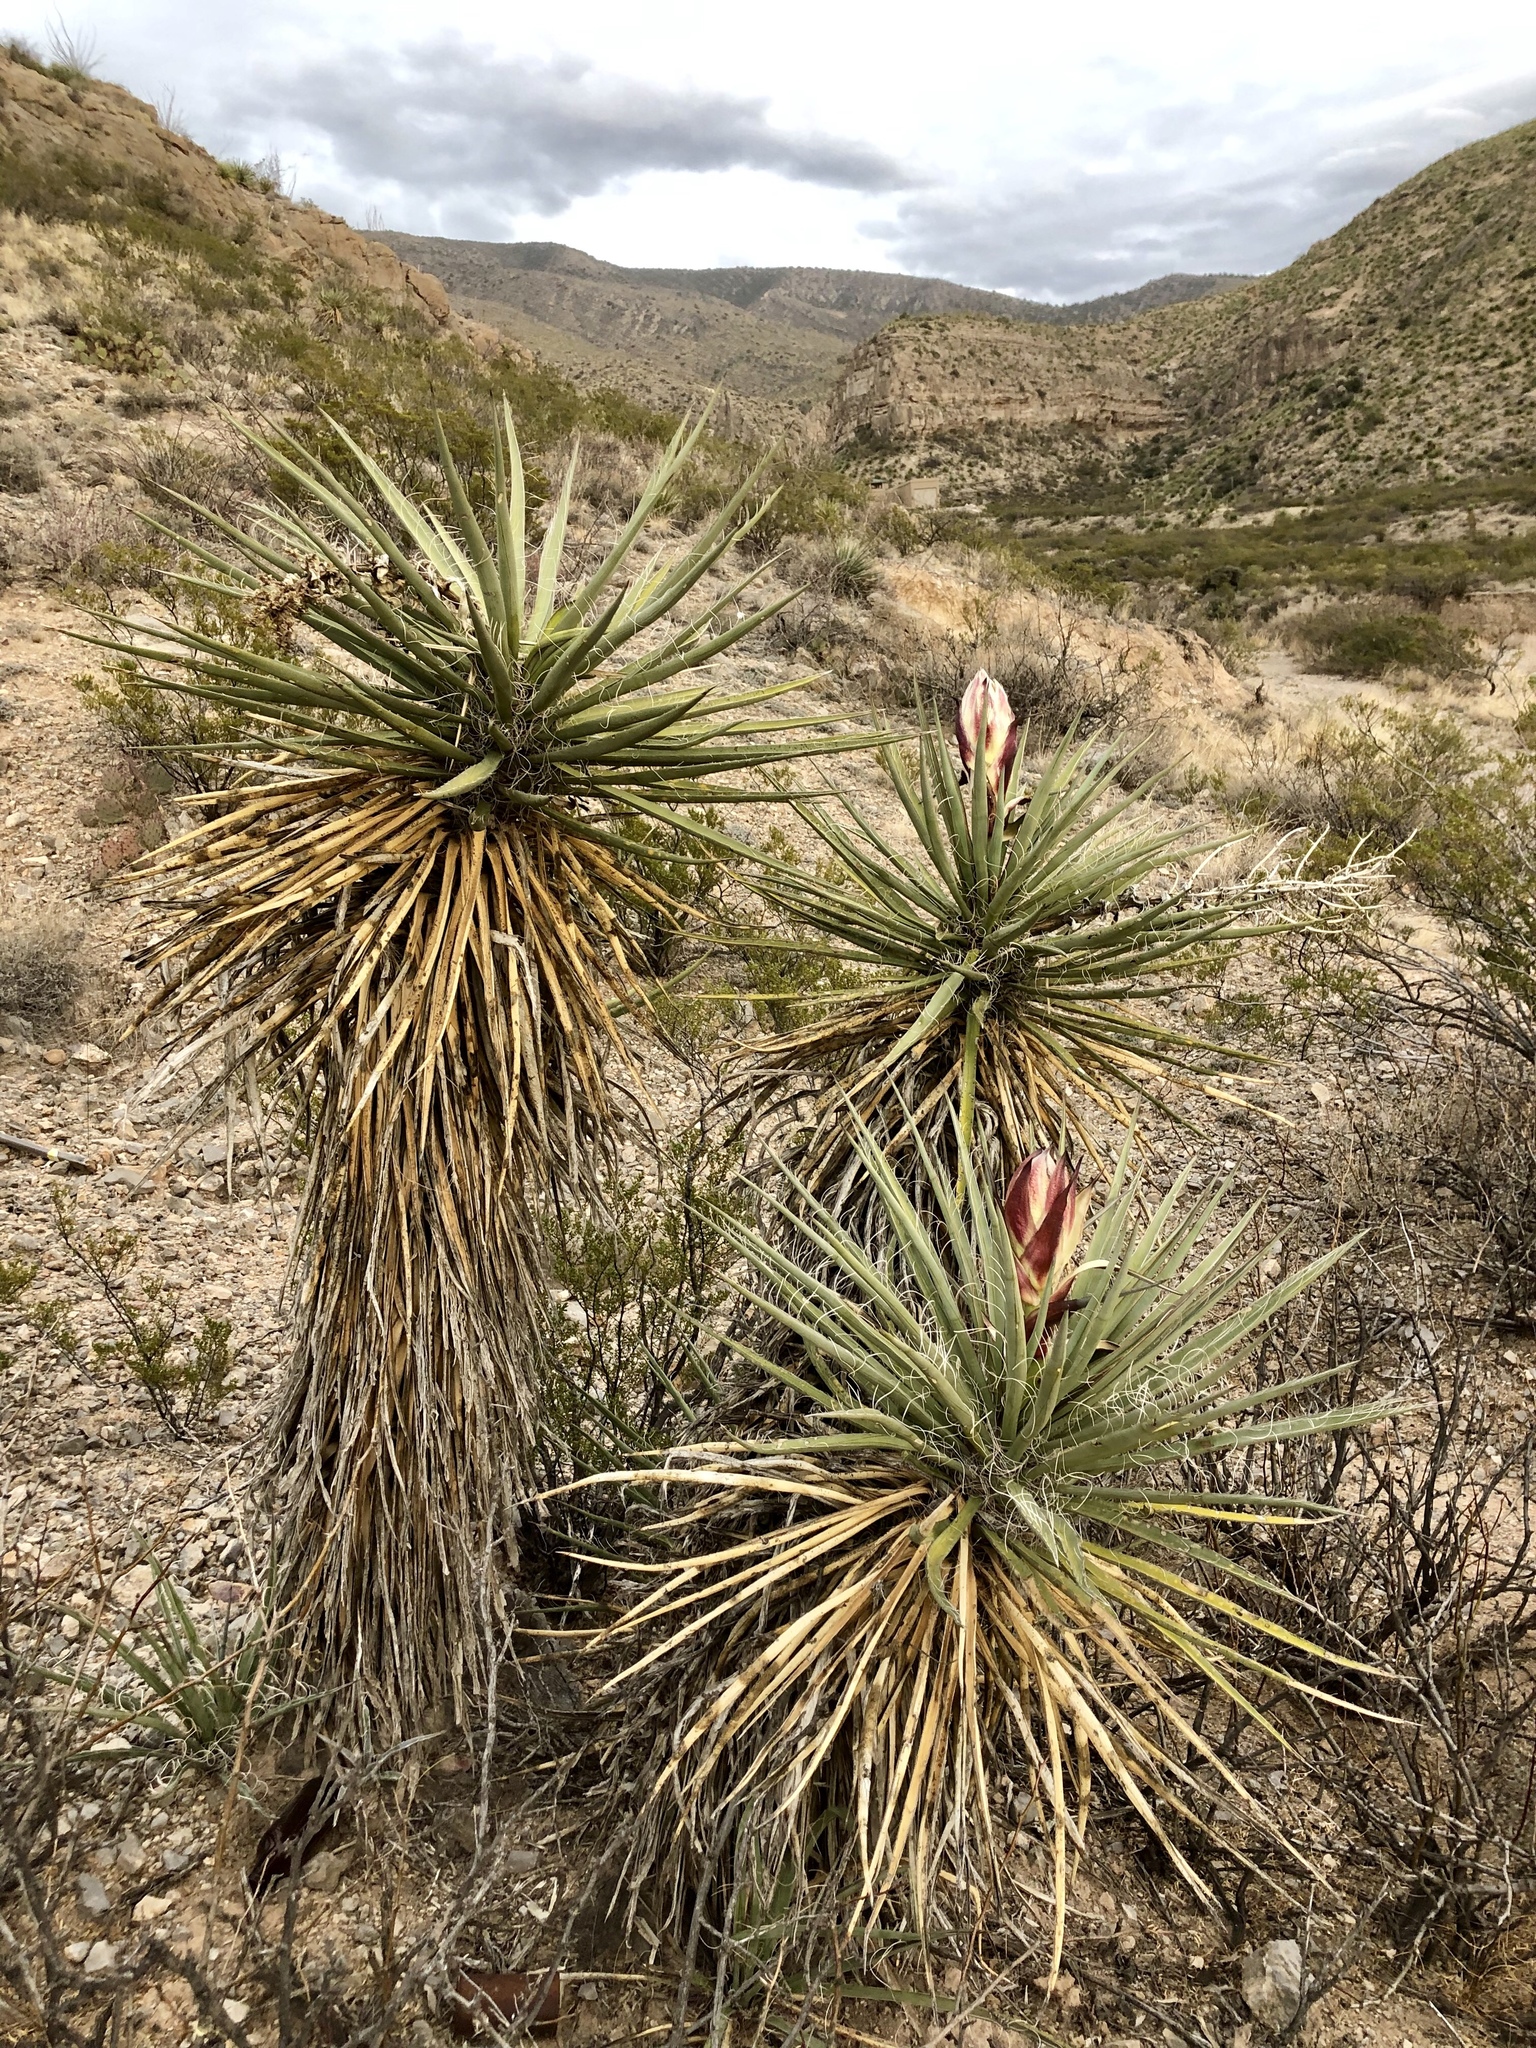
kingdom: Plantae
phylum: Tracheophyta
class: Liliopsida
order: Asparagales
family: Asparagaceae
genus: Yucca
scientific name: Yucca treculiana
